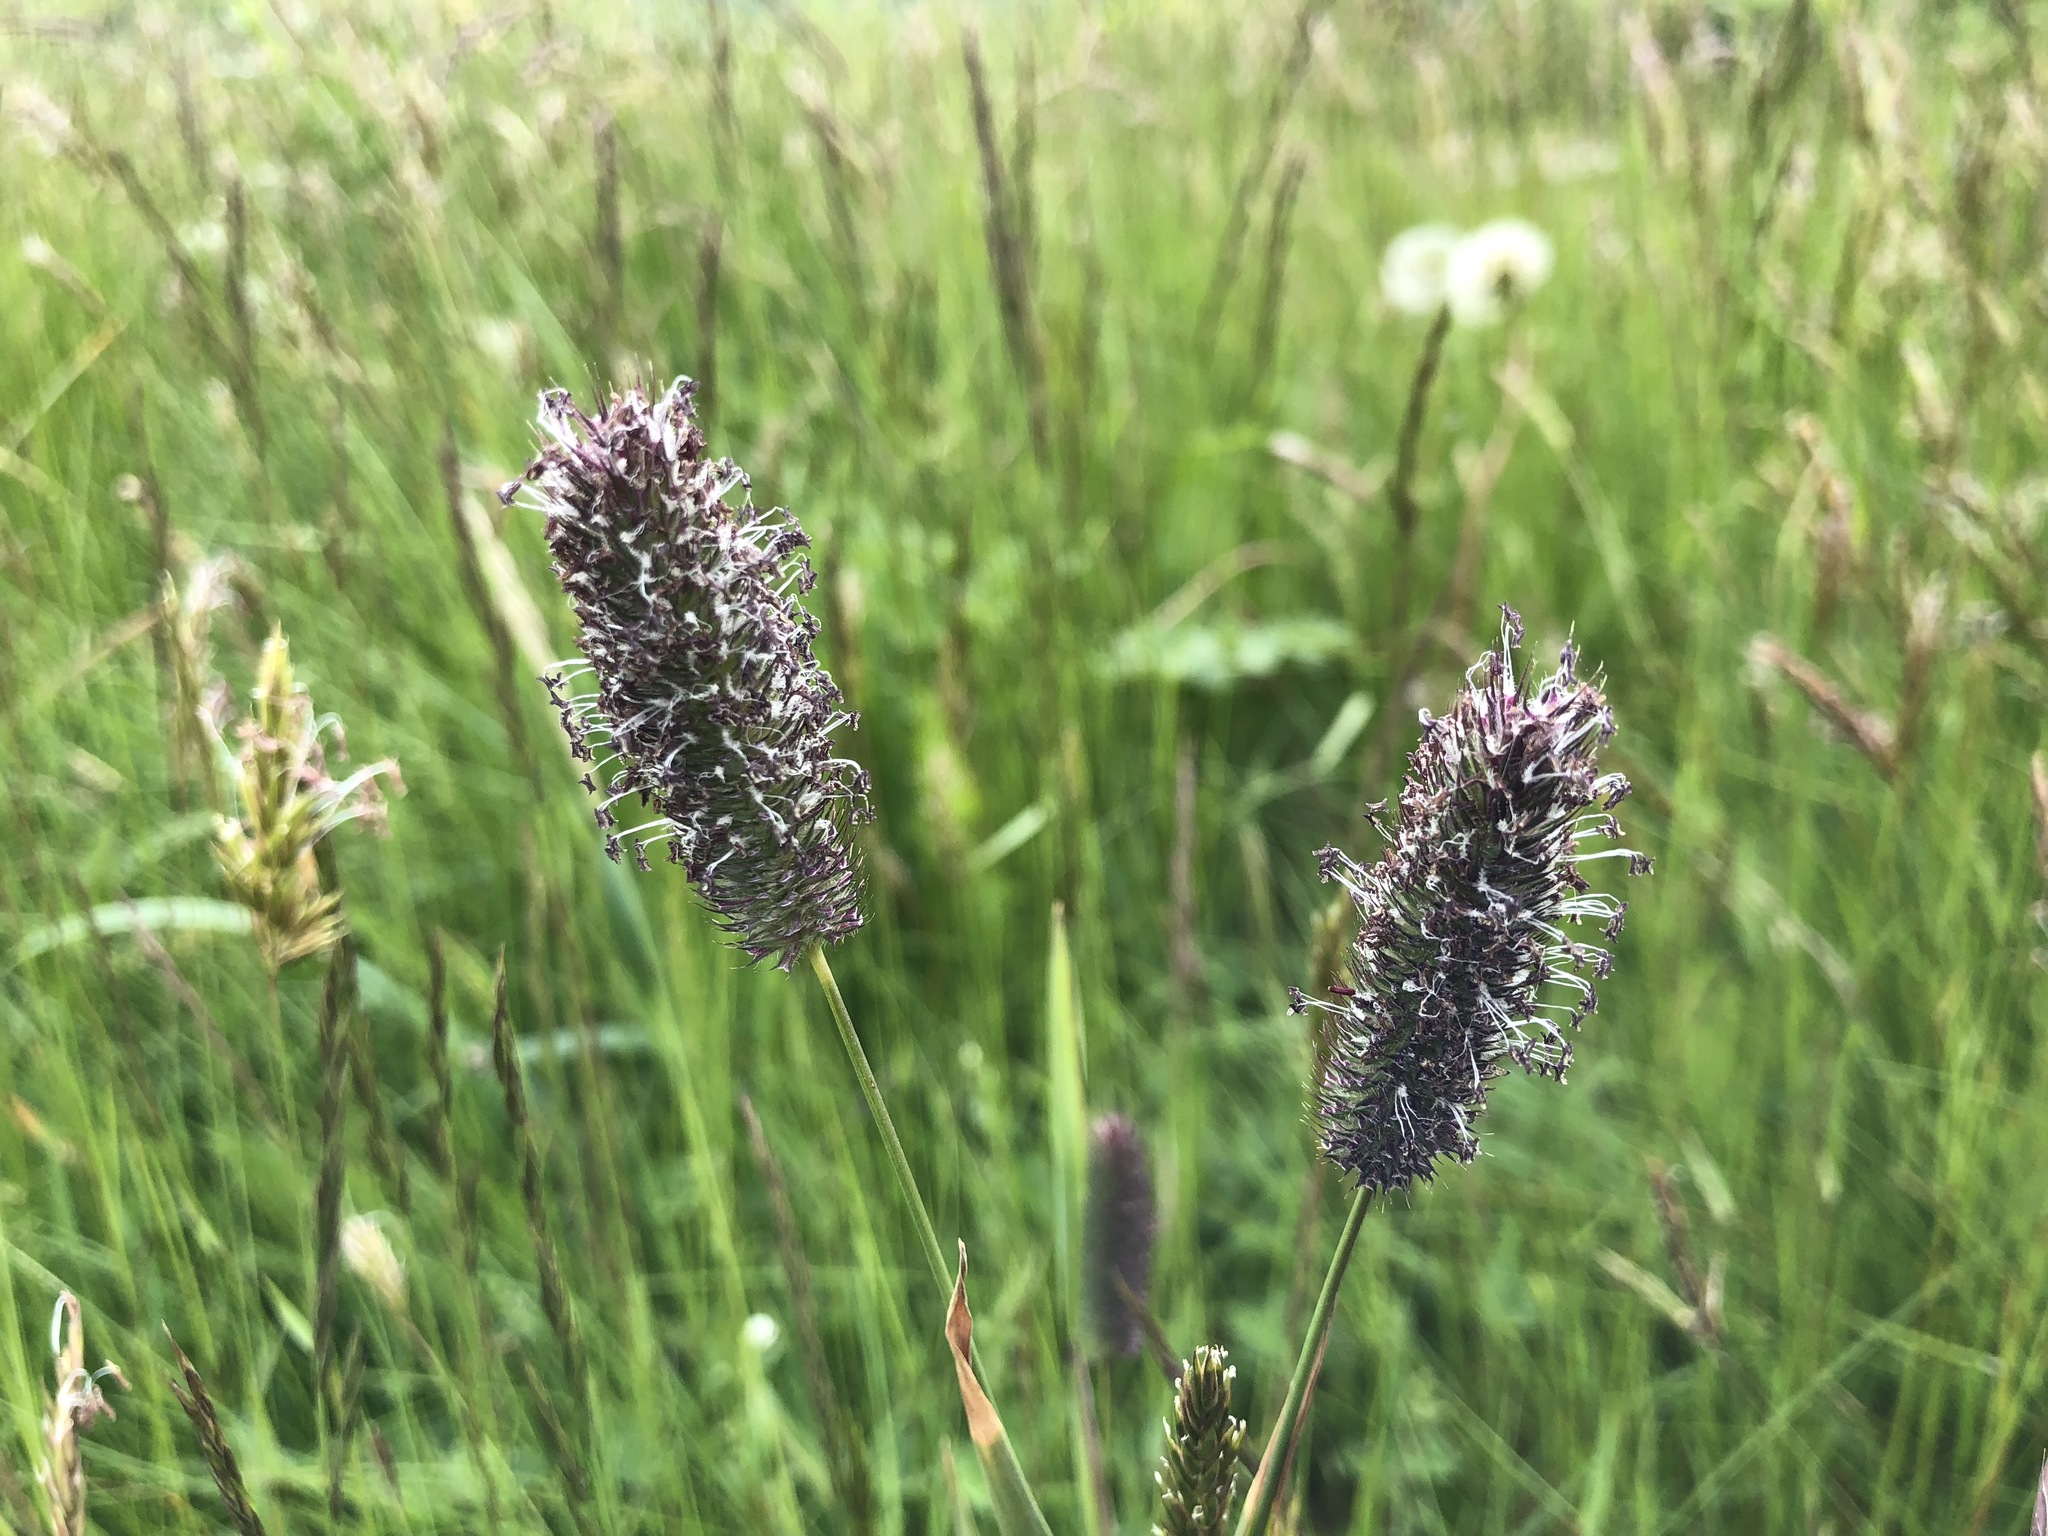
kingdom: Plantae
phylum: Tracheophyta
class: Liliopsida
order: Poales
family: Poaceae
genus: Phleum
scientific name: Phleum alpinum
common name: Alpine cat's-tail
